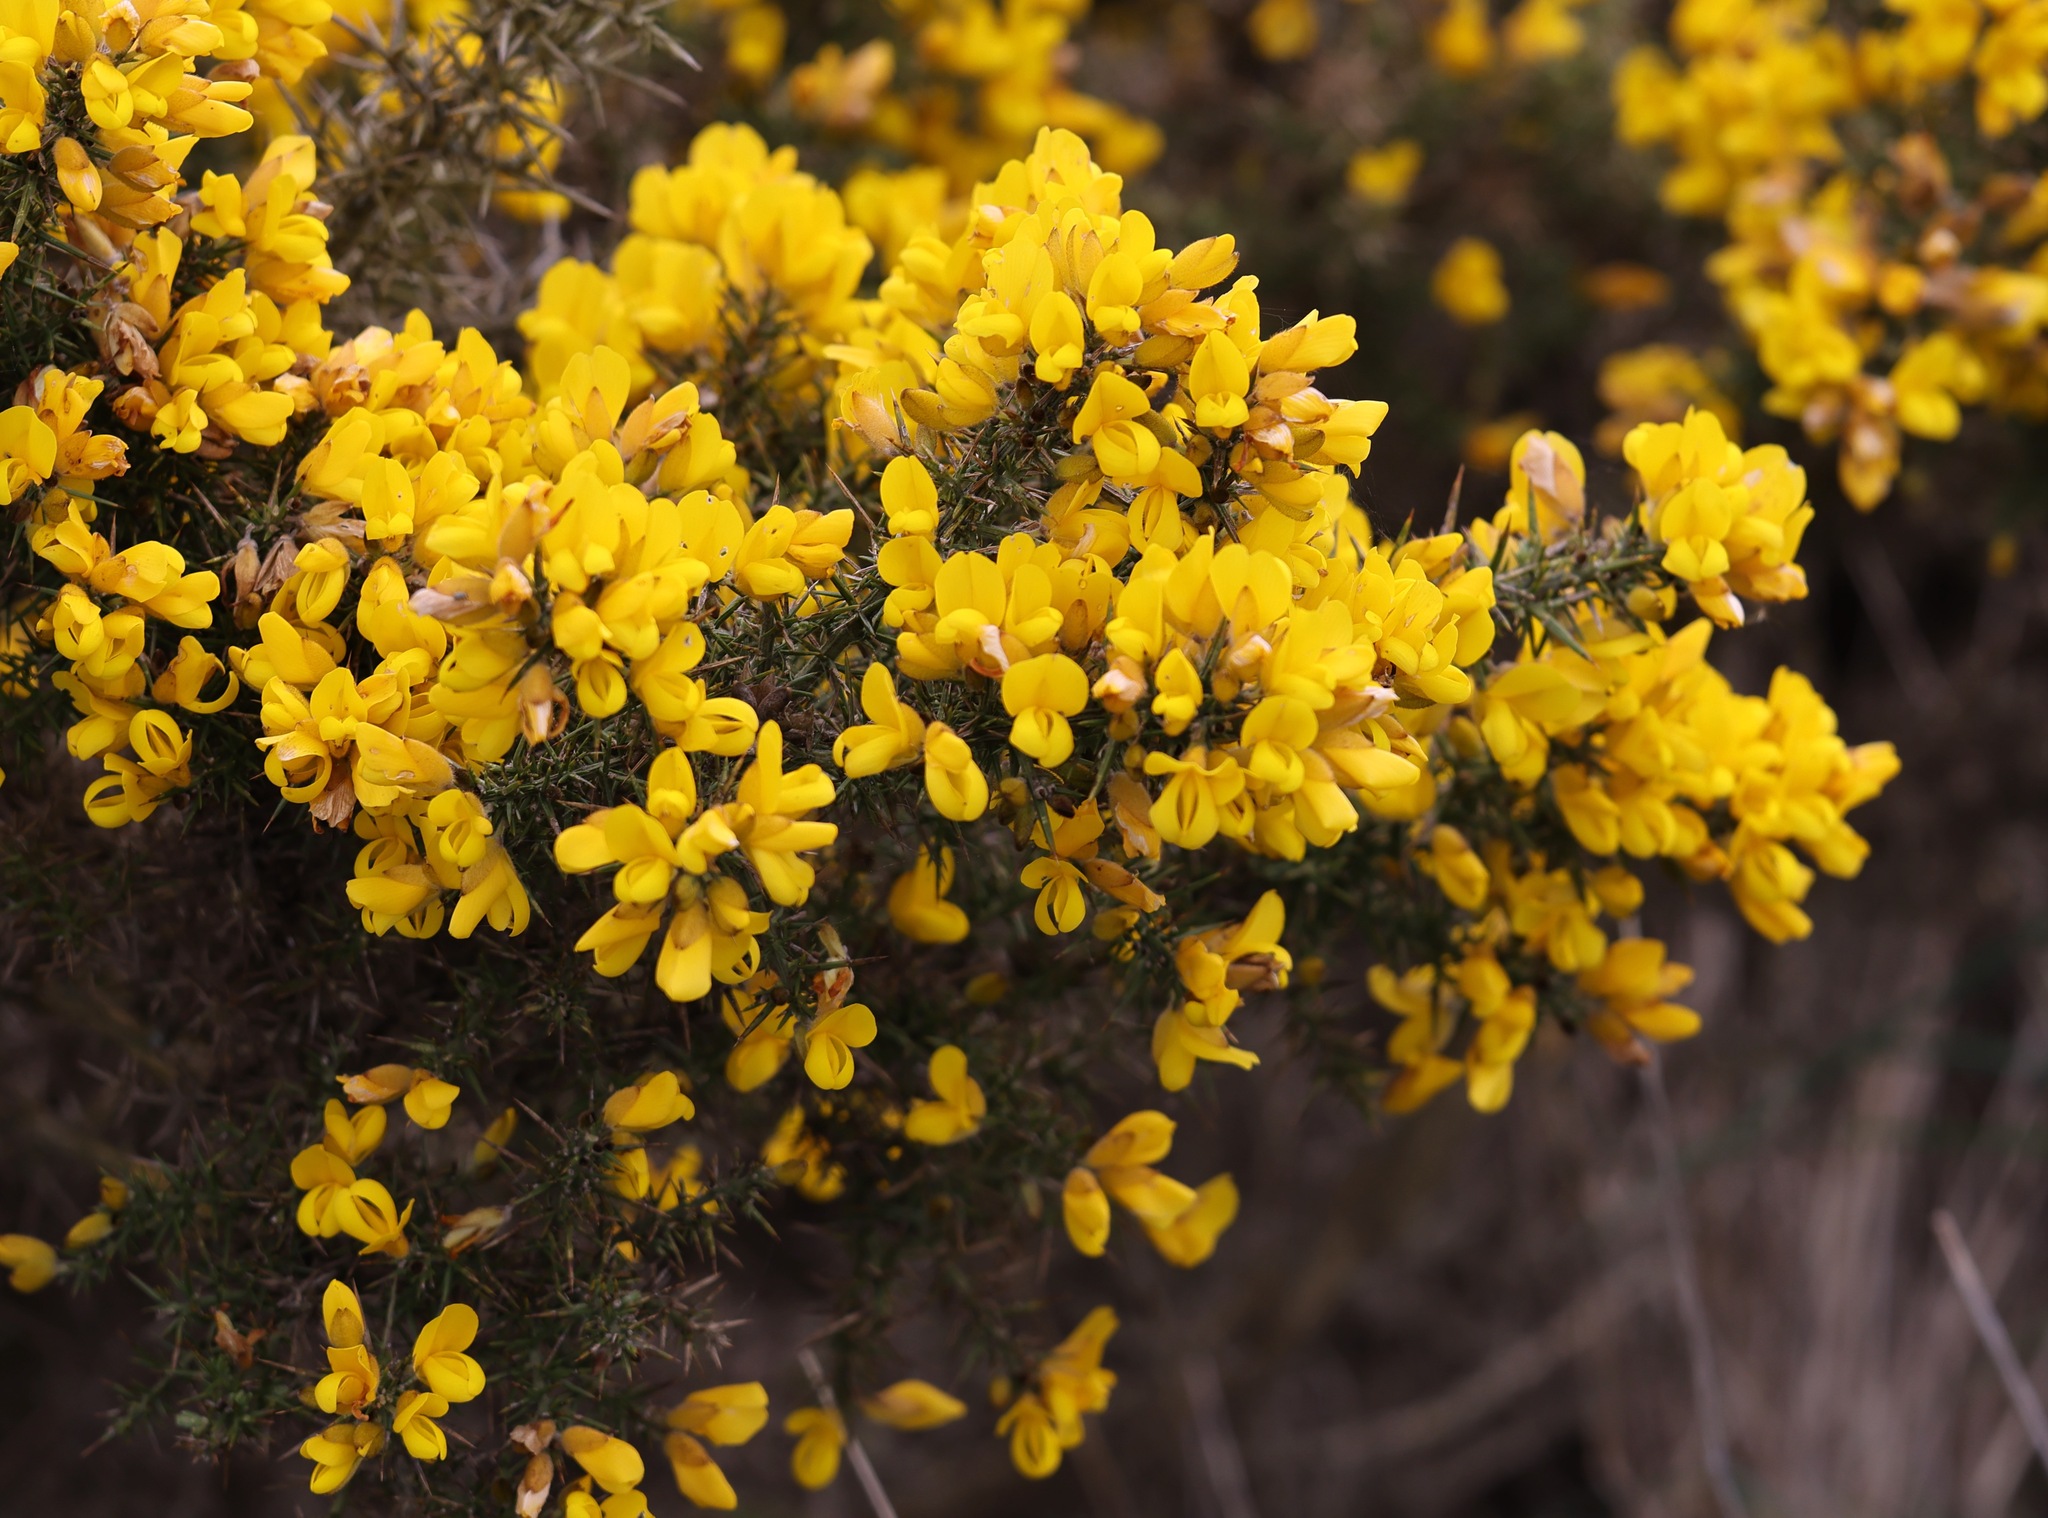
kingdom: Plantae
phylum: Tracheophyta
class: Magnoliopsida
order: Fabales
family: Fabaceae
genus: Ulex
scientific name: Ulex europaeus
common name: Common gorse
